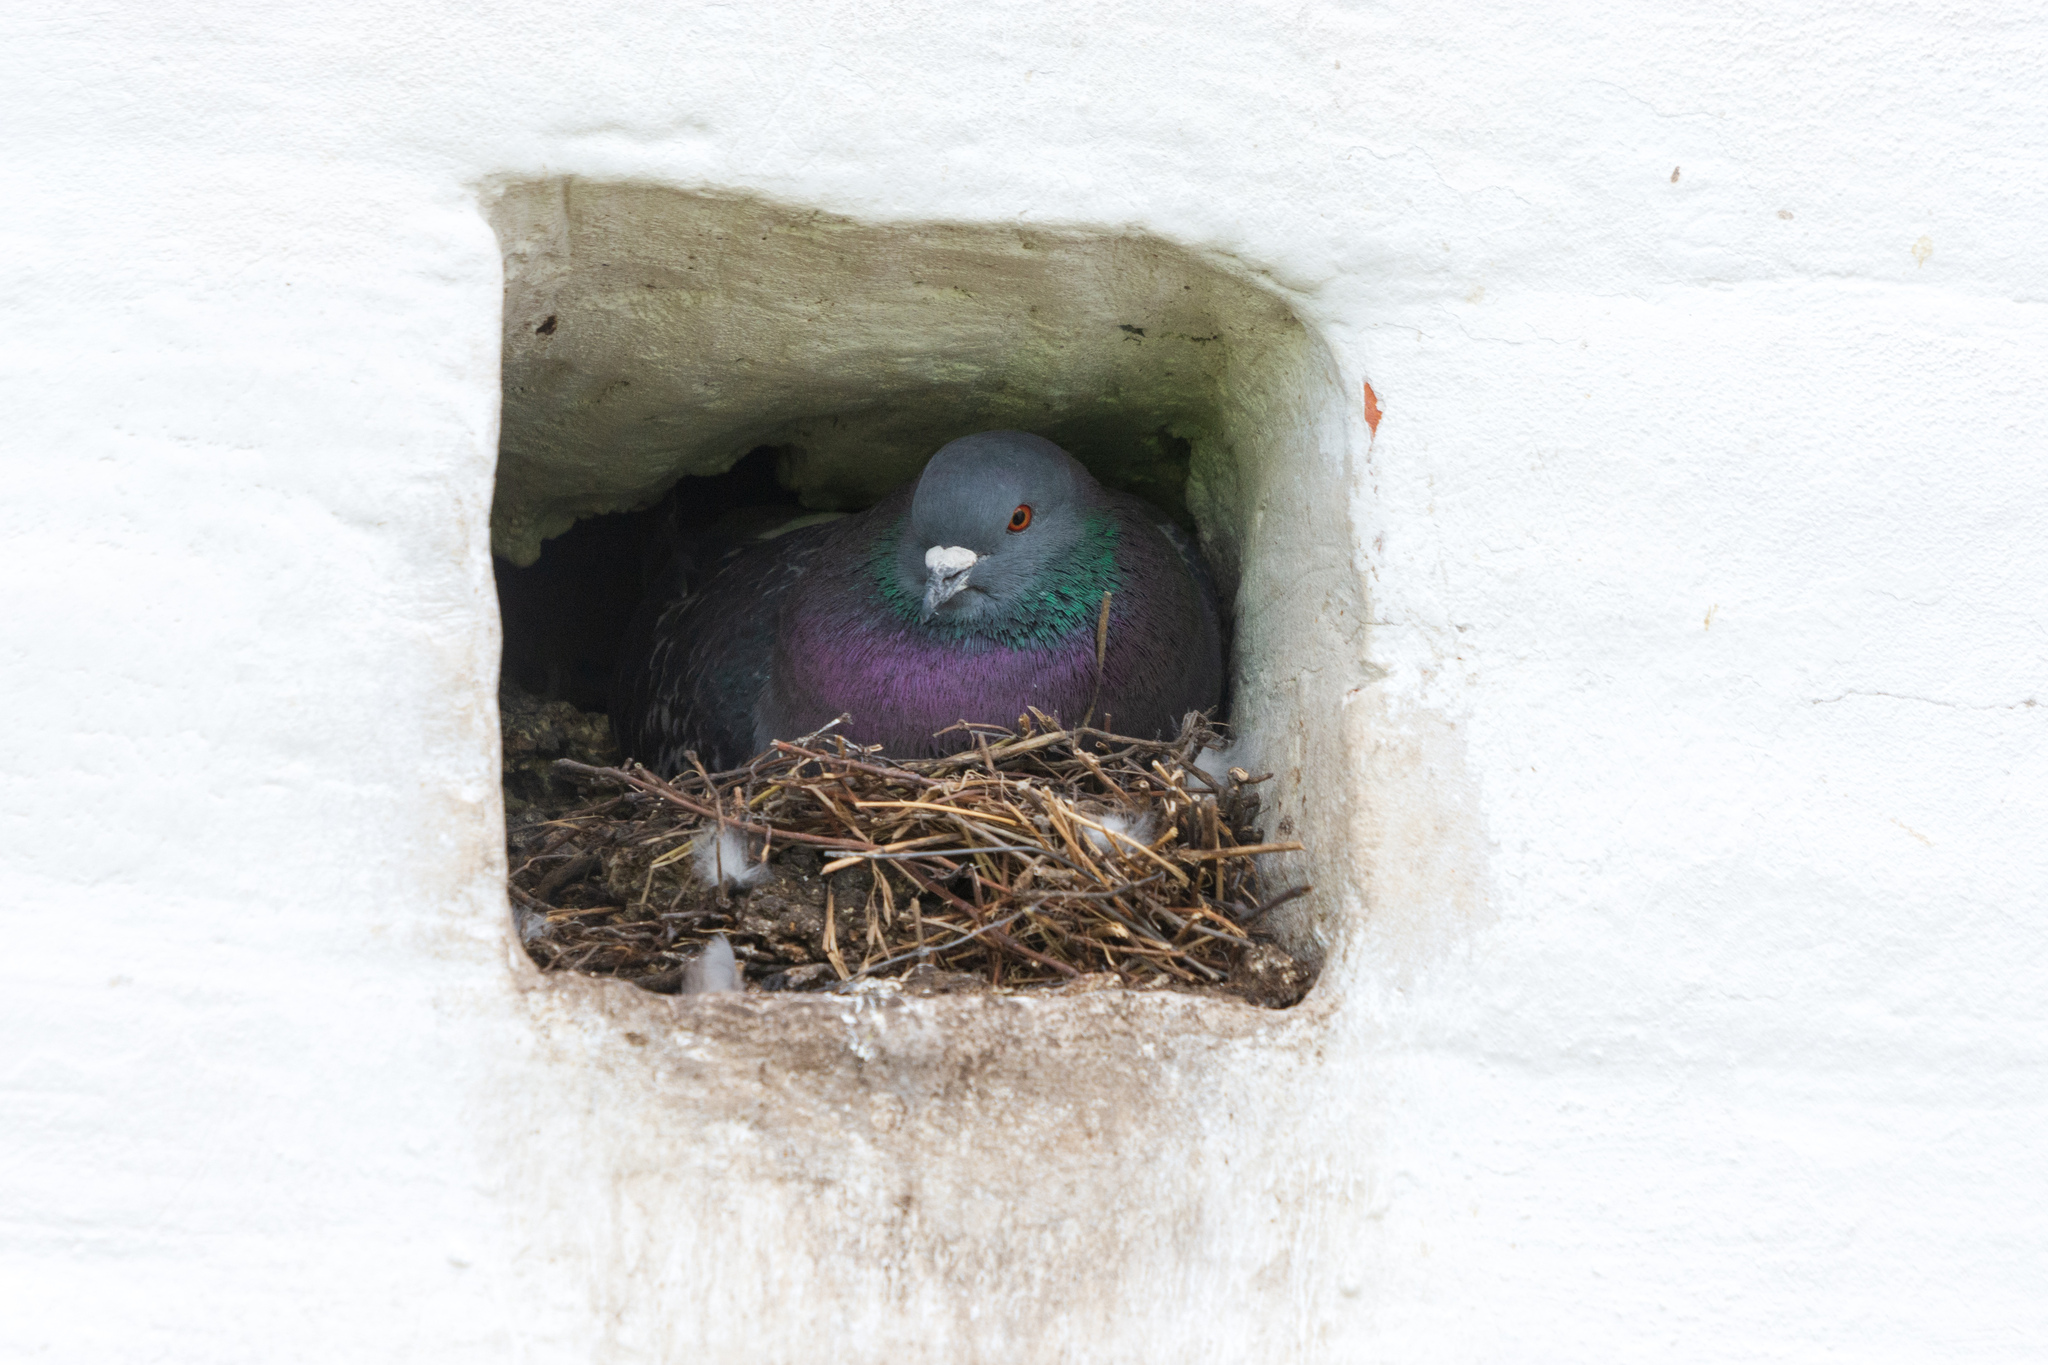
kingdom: Animalia
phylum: Chordata
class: Aves
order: Columbiformes
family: Columbidae
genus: Columba
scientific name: Columba livia
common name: Rock pigeon
